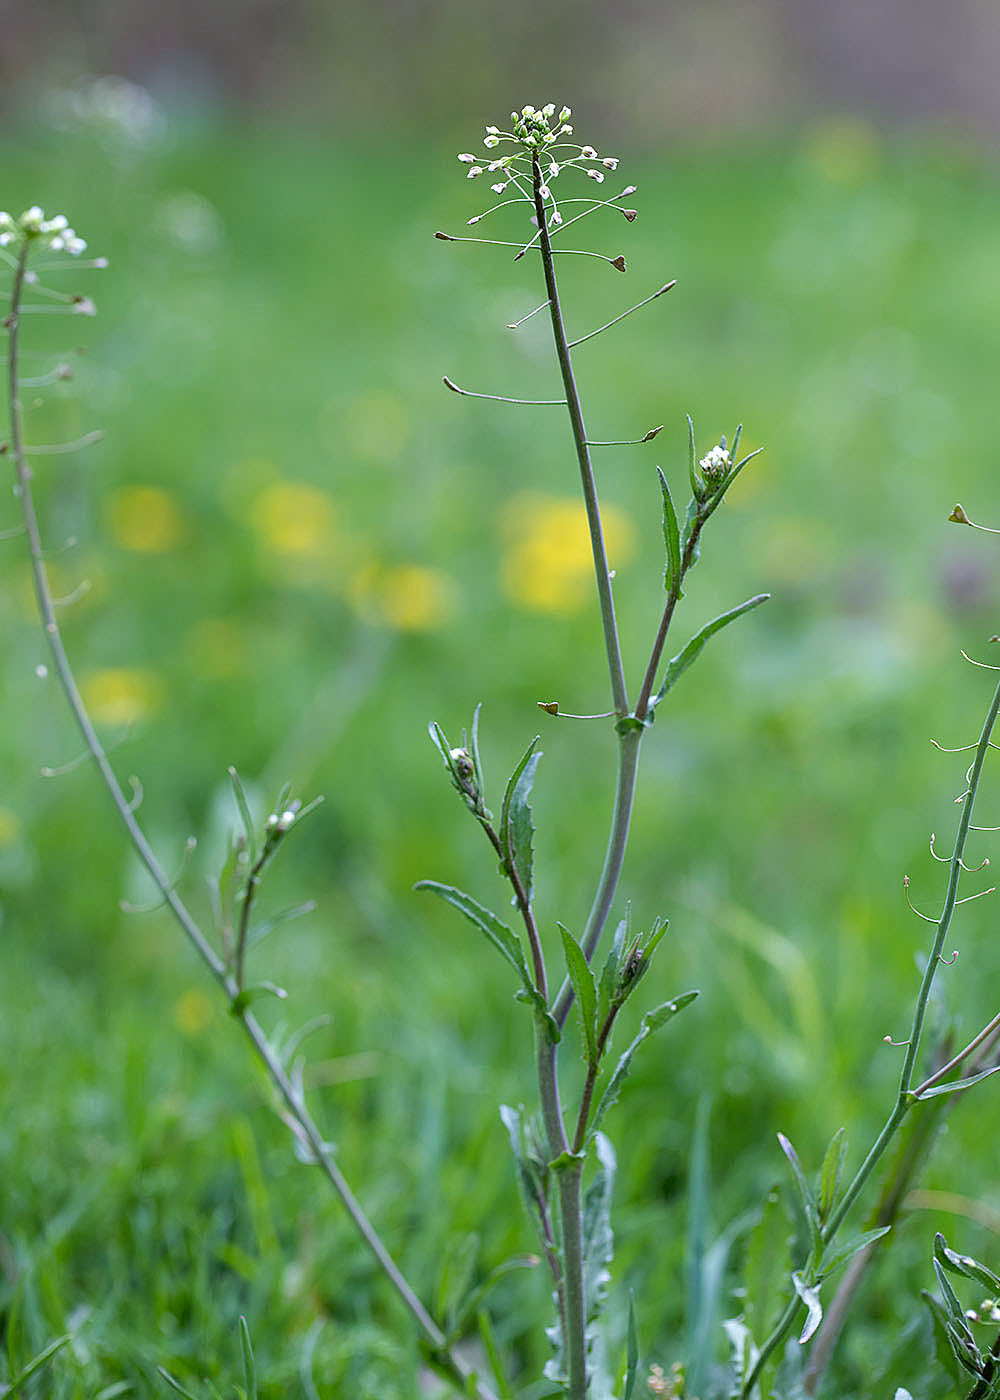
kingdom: Plantae
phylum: Tracheophyta
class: Magnoliopsida
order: Brassicales
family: Brassicaceae
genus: Capsella
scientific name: Capsella bursa-pastoris
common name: Shepherd's purse
